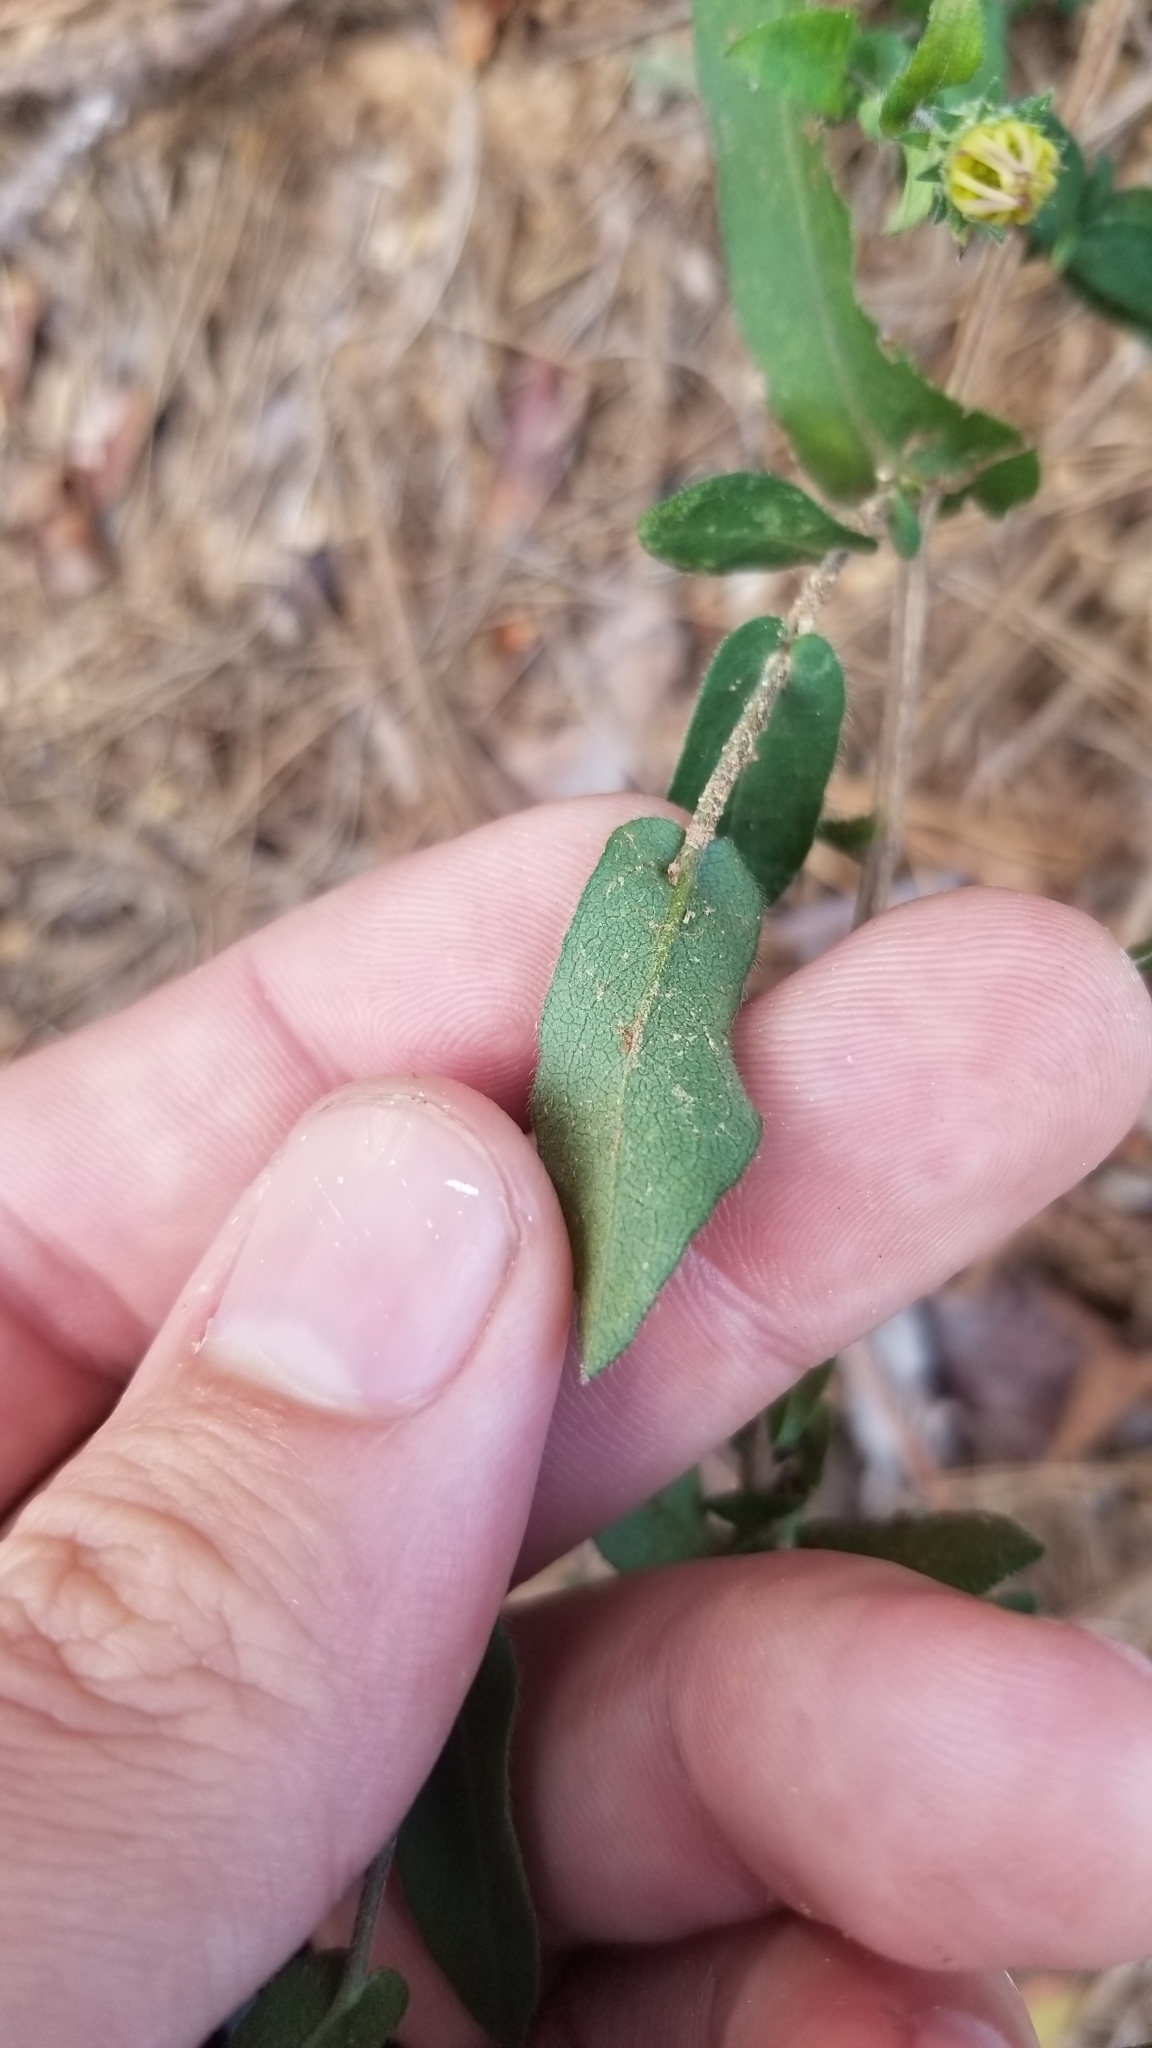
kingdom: Plantae
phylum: Tracheophyta
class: Magnoliopsida
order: Asterales
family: Asteraceae
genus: Symphyotrichum
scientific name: Symphyotrichum patens
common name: Late purple aster
